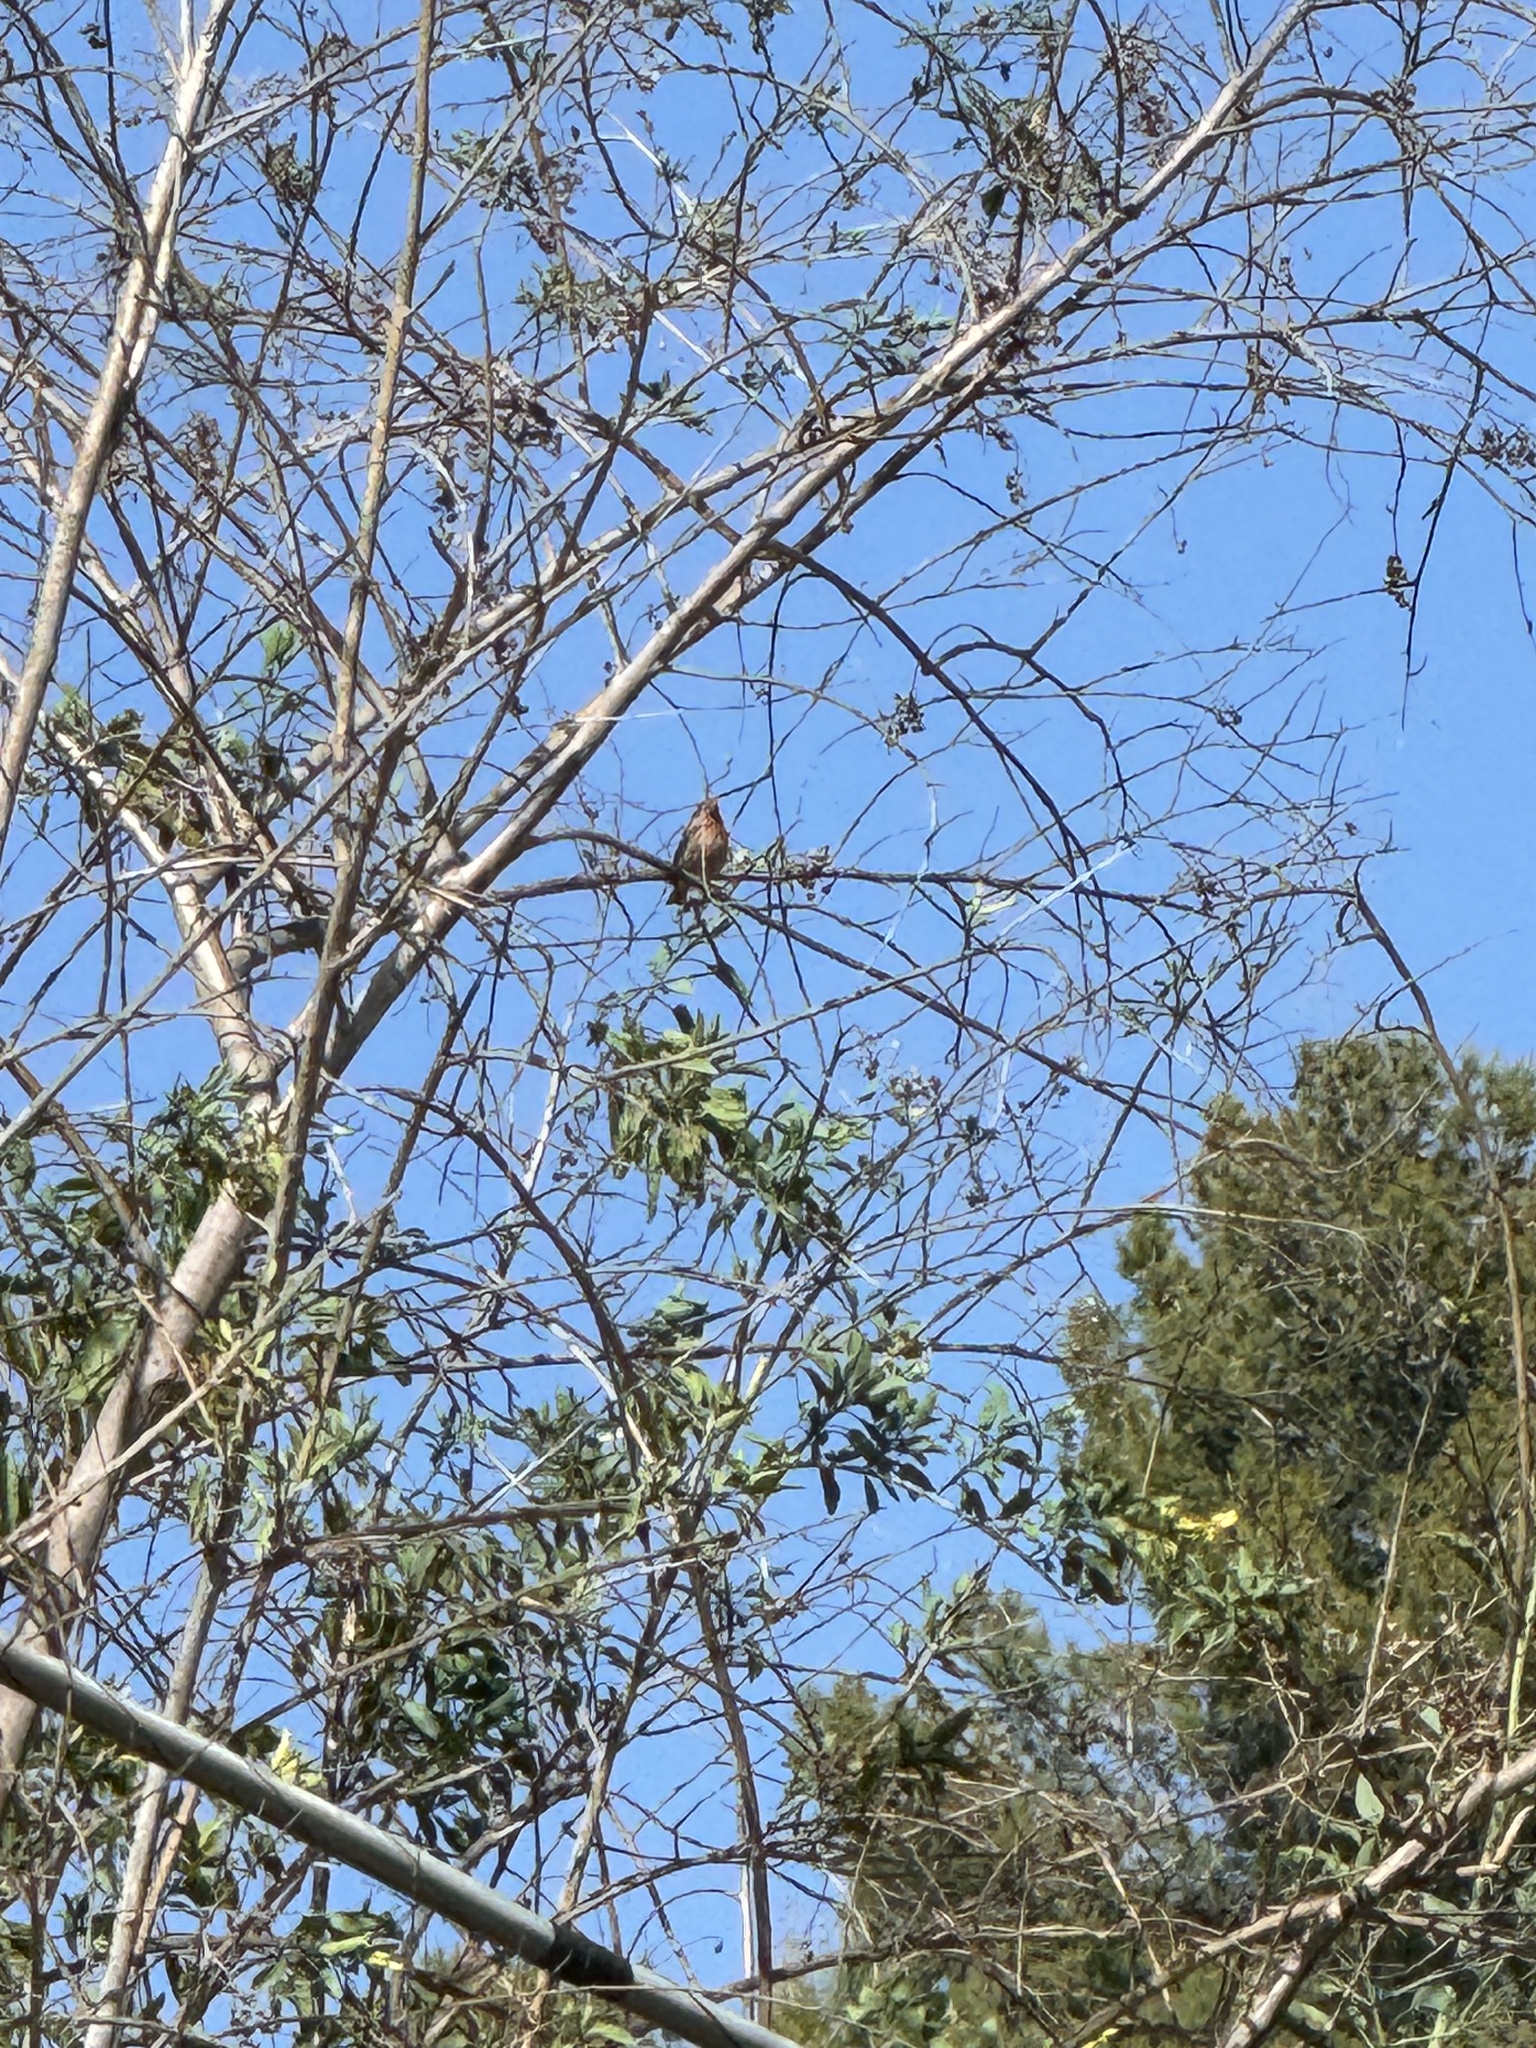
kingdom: Animalia
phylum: Chordata
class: Aves
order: Passeriformes
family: Fringillidae
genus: Haemorhous
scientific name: Haemorhous mexicanus
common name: House finch
